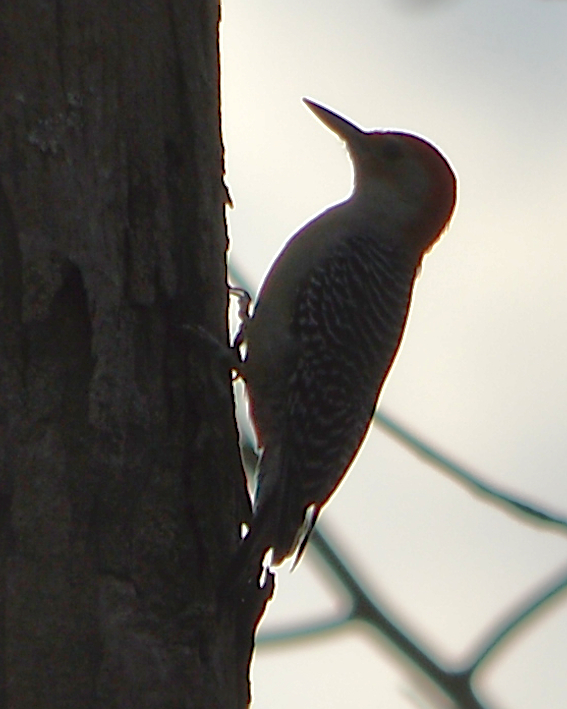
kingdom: Animalia
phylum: Chordata
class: Aves
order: Piciformes
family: Picidae
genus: Melanerpes
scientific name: Melanerpes carolinus
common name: Red-bellied woodpecker
